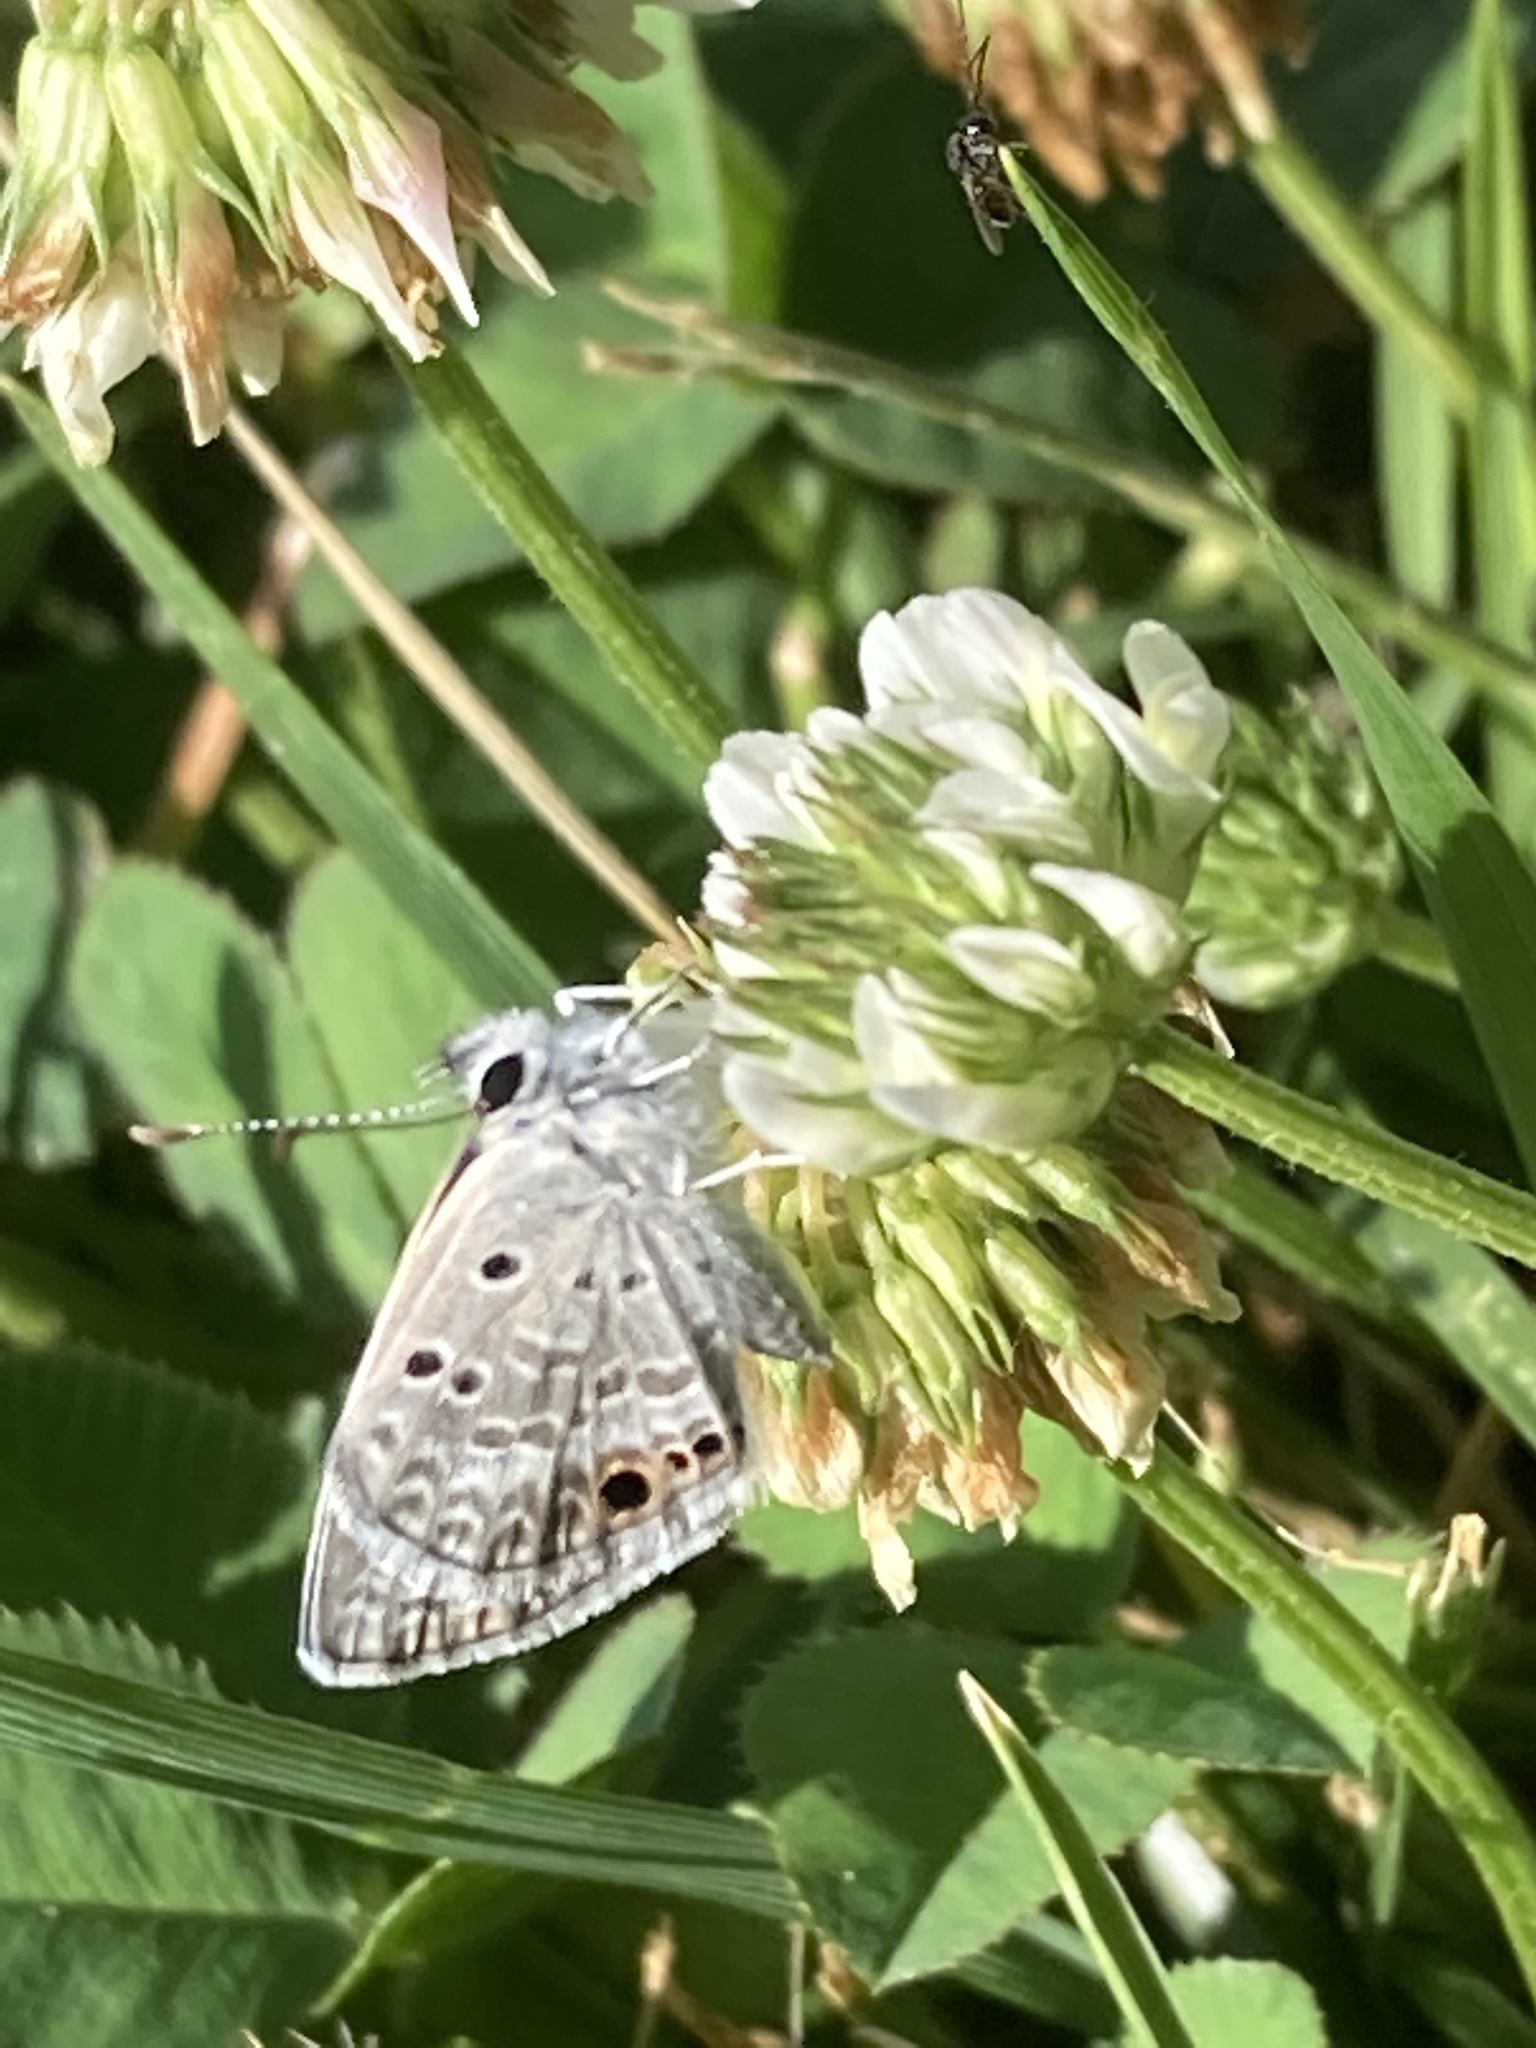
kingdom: Animalia
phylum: Arthropoda
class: Insecta
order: Lepidoptera
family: Lycaenidae
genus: Echinargus
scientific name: Echinargus isola
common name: Reakirt's blue
